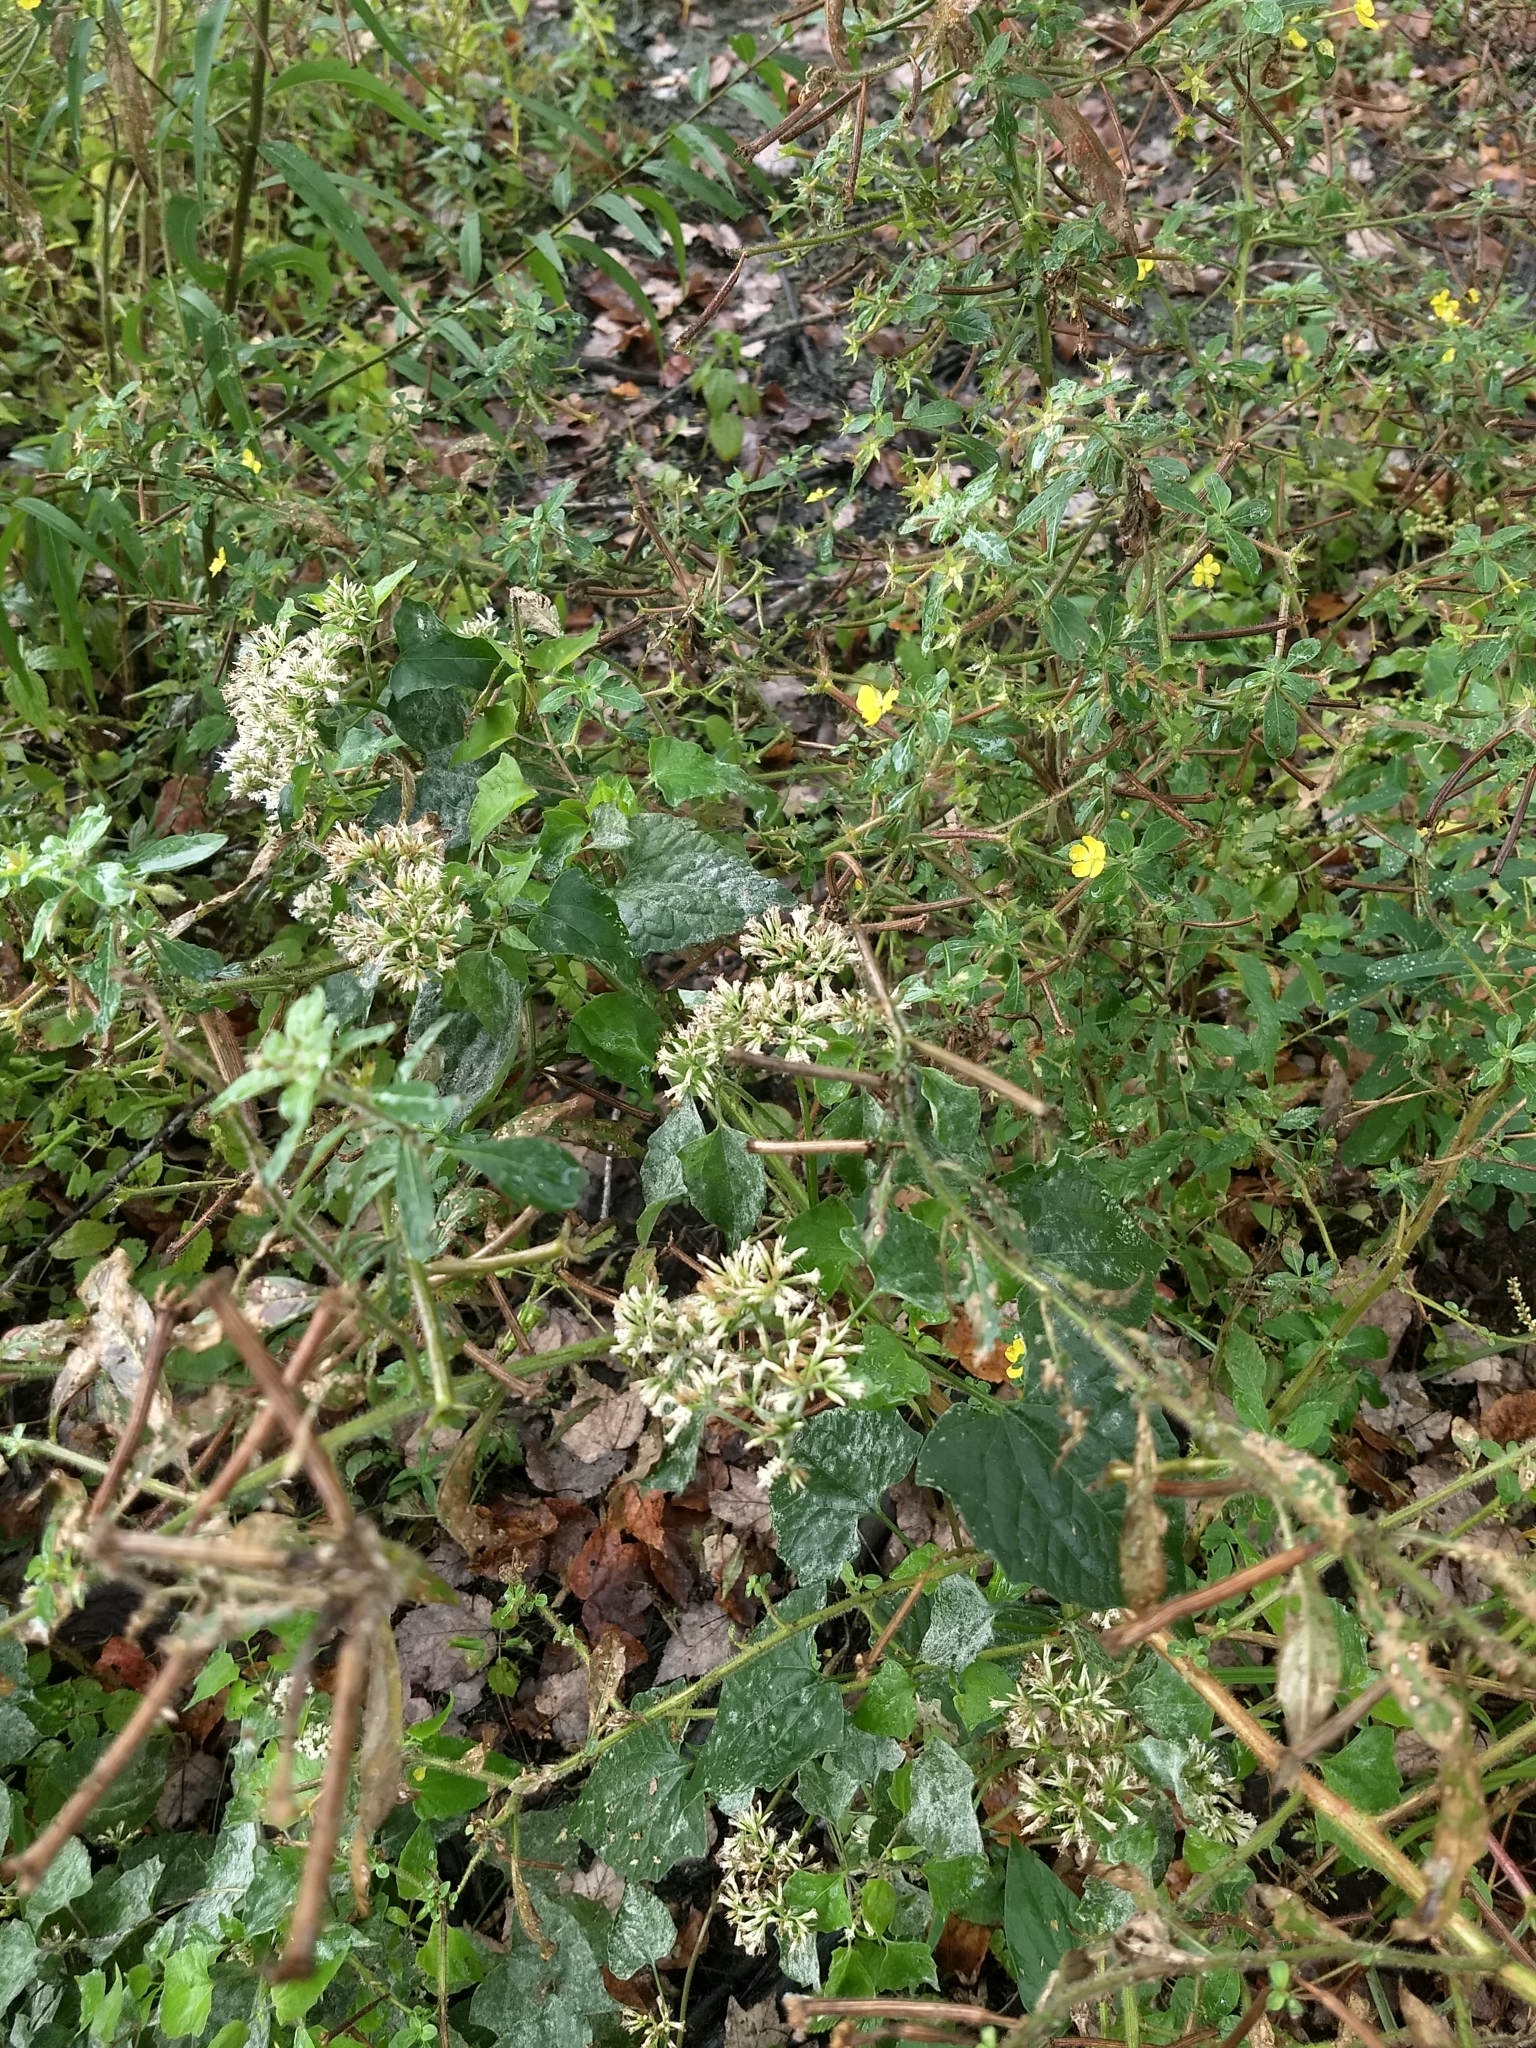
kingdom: Plantae
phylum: Tracheophyta
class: Magnoliopsida
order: Asterales
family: Asteraceae
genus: Mikania
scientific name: Mikania scandens
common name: Climbing hempvine
